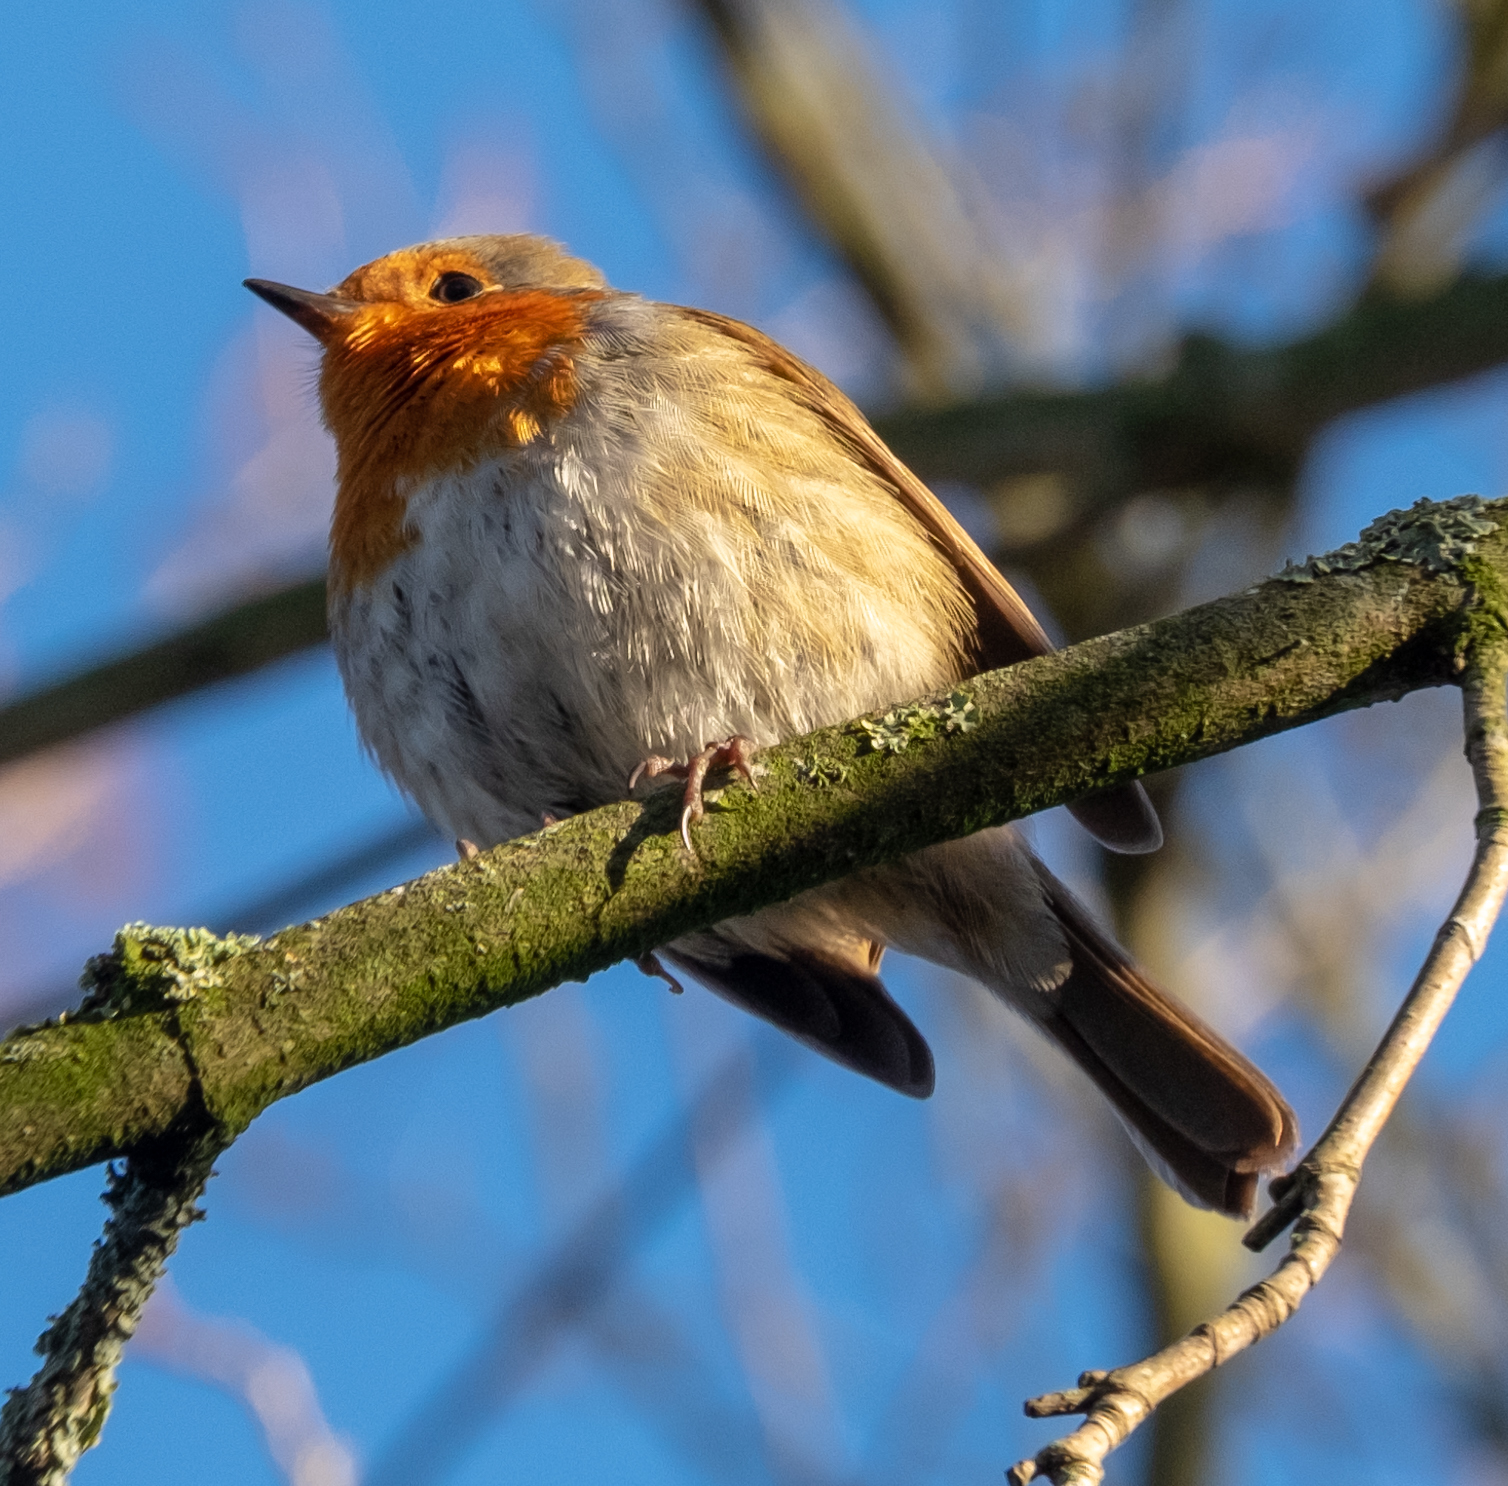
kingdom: Animalia
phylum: Chordata
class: Aves
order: Passeriformes
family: Muscicapidae
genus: Erithacus
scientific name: Erithacus rubecula
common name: European robin
